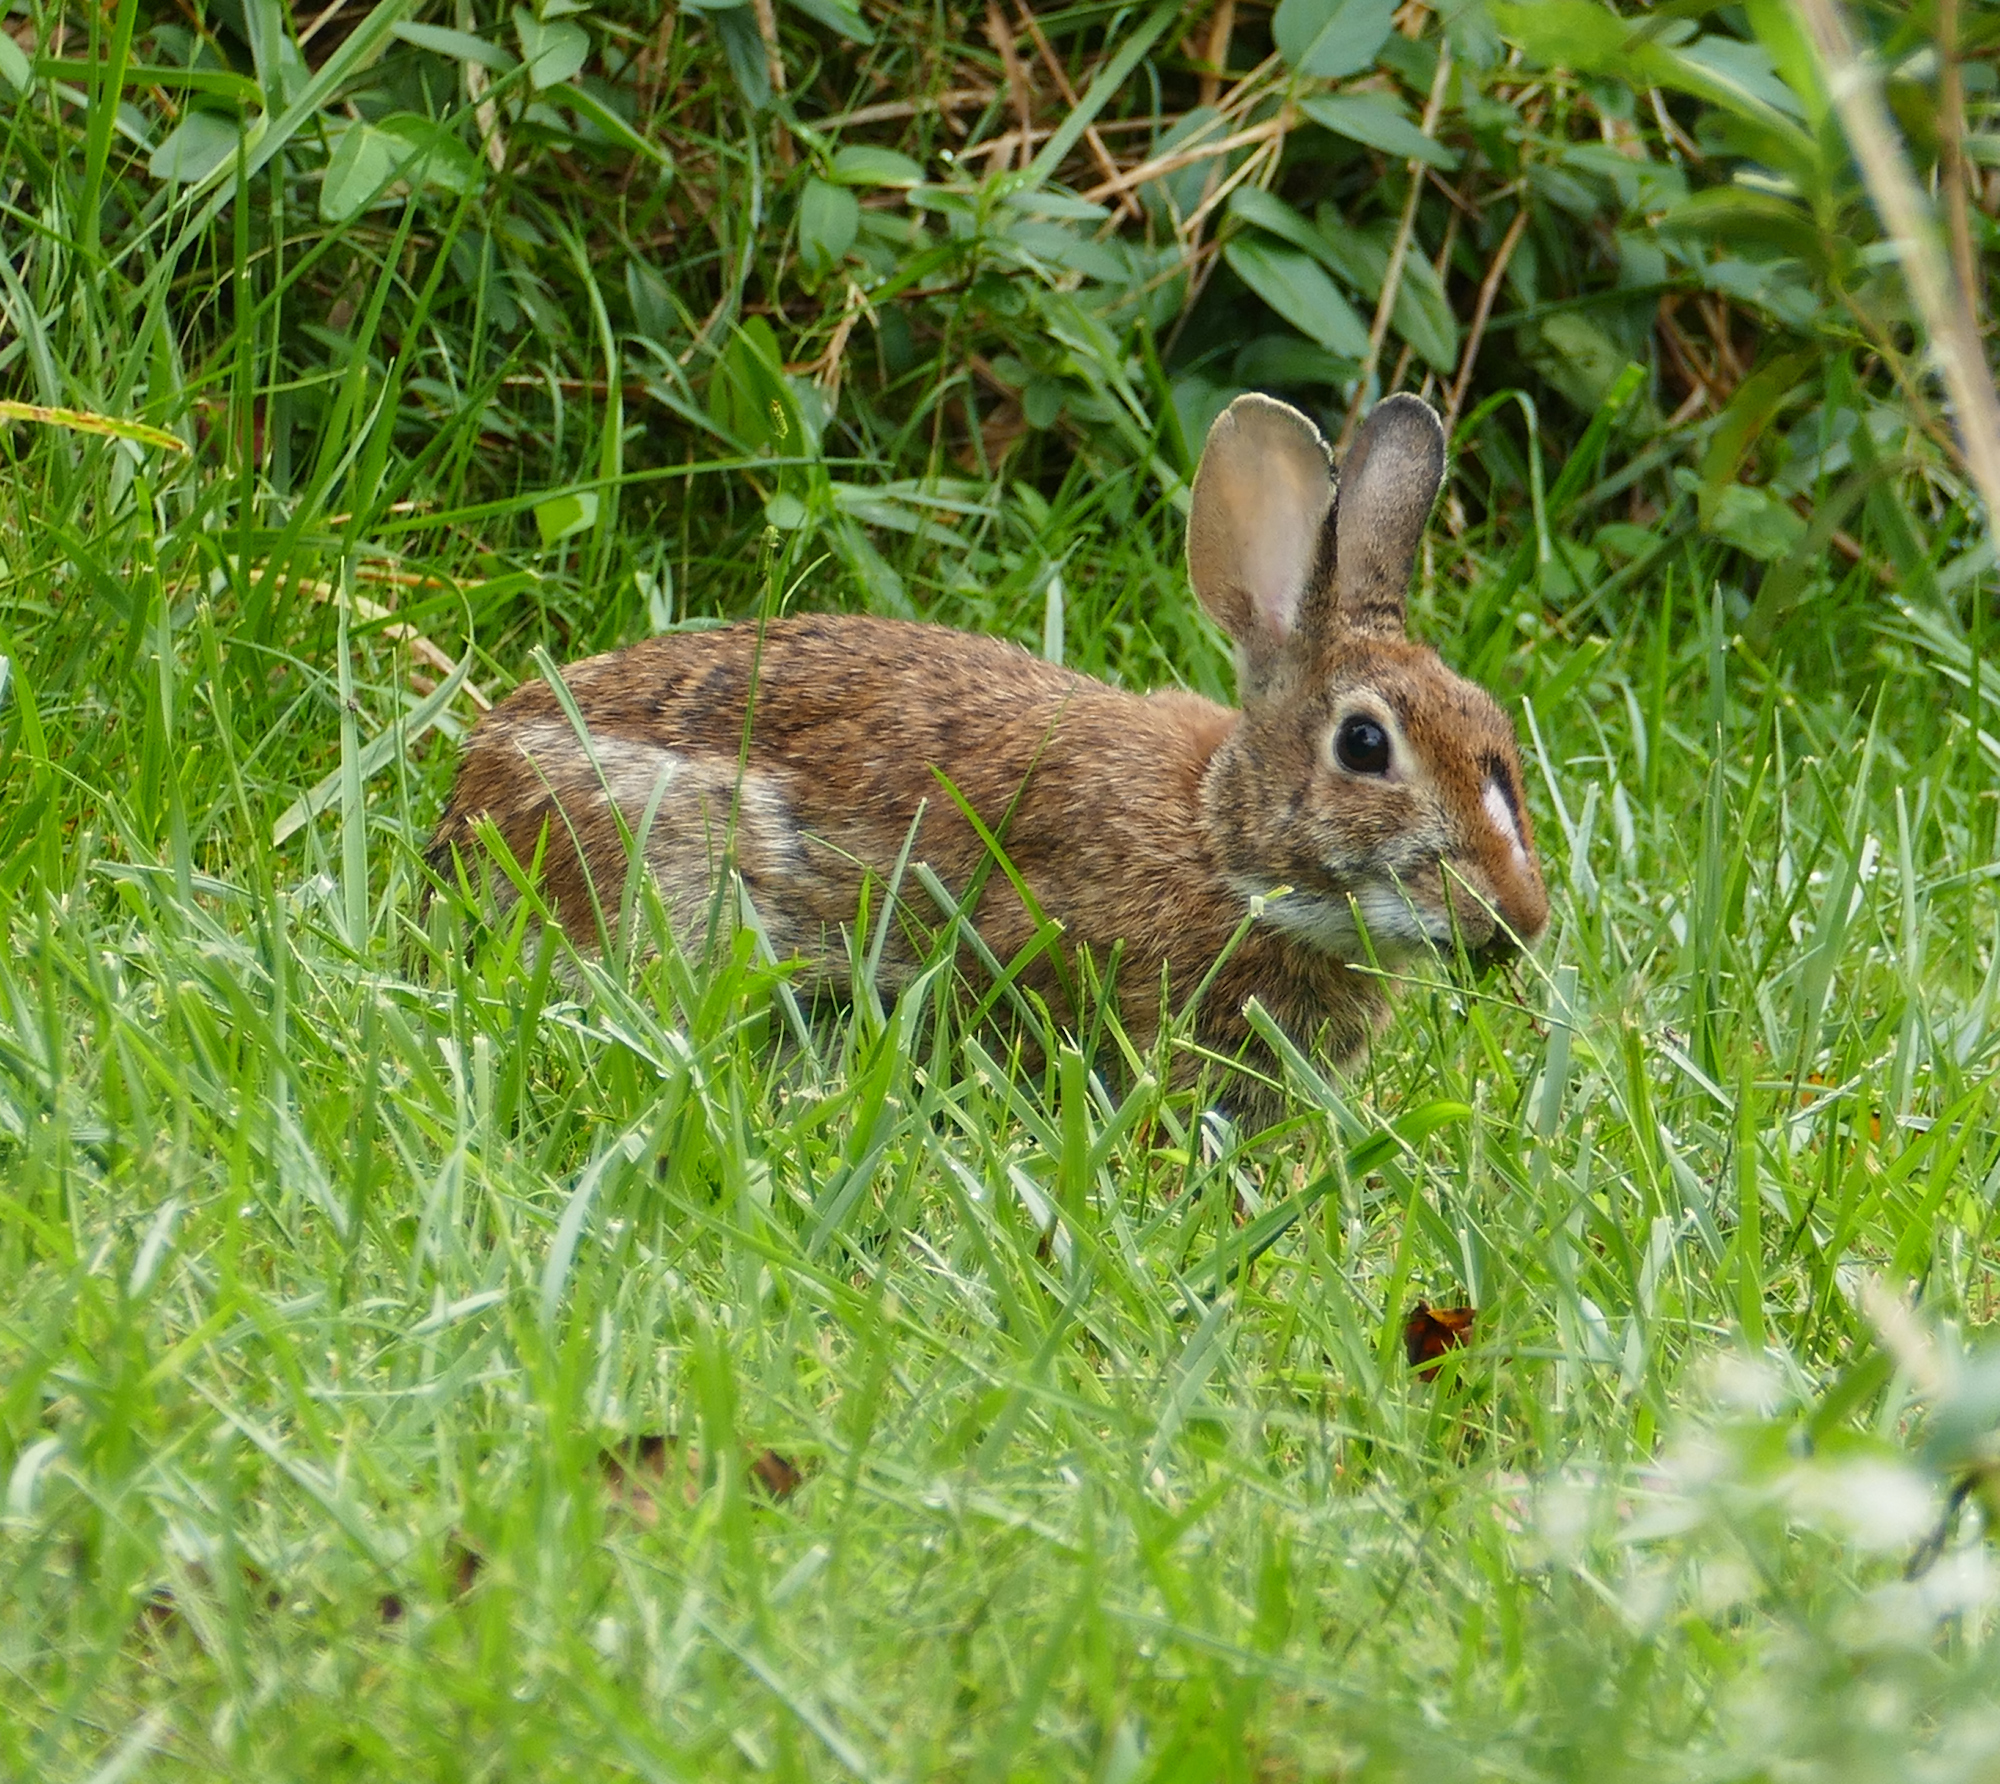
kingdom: Animalia
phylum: Chordata
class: Mammalia
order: Lagomorpha
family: Leporidae
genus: Sylvilagus
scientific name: Sylvilagus floridanus
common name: Eastern cottontail
